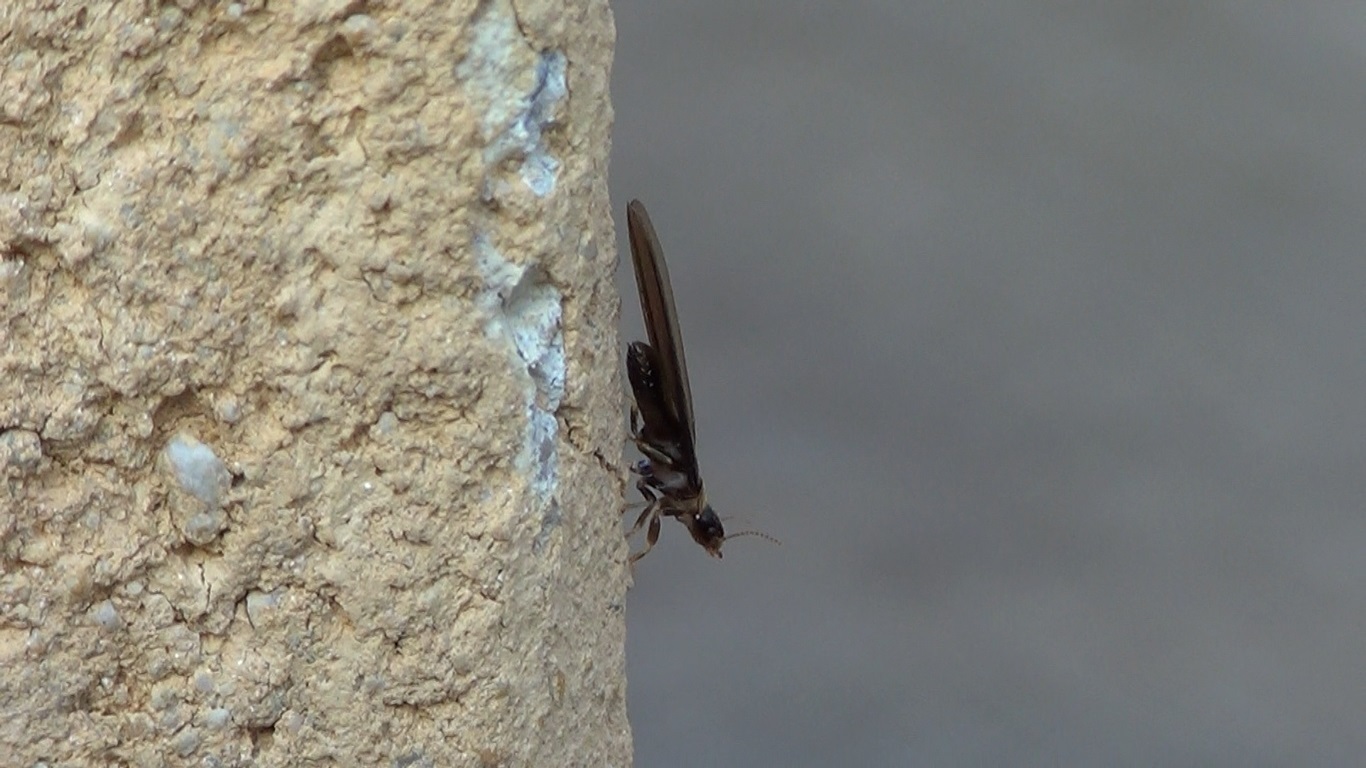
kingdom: Animalia
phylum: Arthropoda
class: Insecta
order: Blattodea
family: Kalotermitidae
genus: Kalotermes
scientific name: Kalotermes flavicollis
